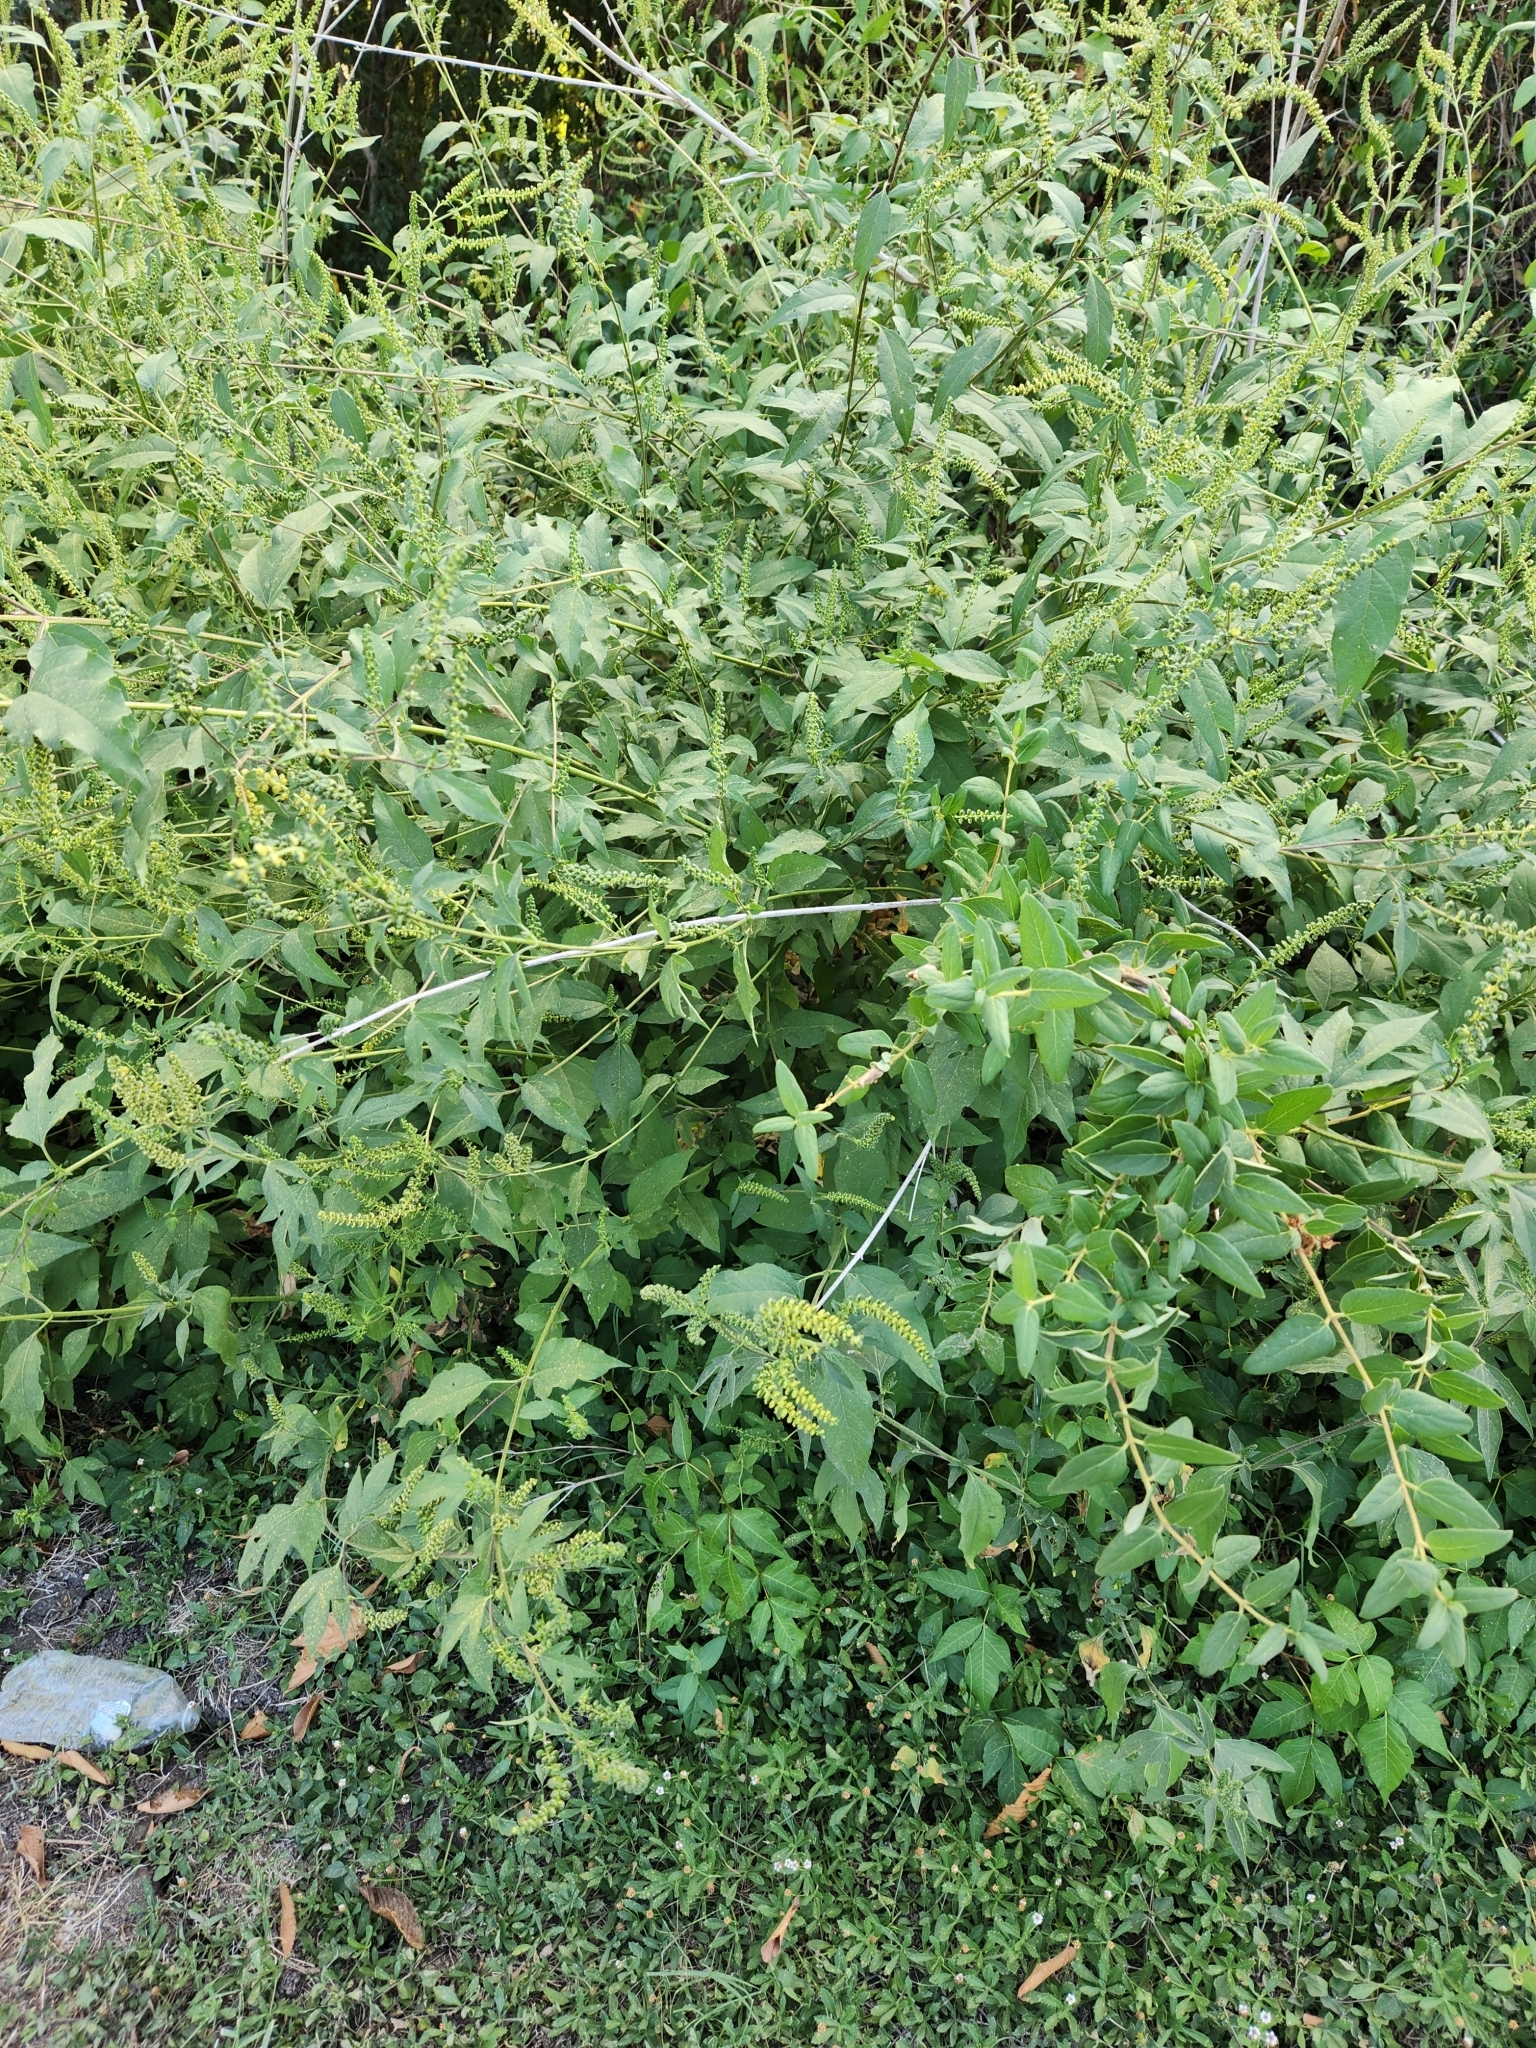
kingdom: Plantae
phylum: Tracheophyta
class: Magnoliopsida
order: Asterales
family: Asteraceae
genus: Ambrosia
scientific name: Ambrosia trifida
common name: Giant ragweed
